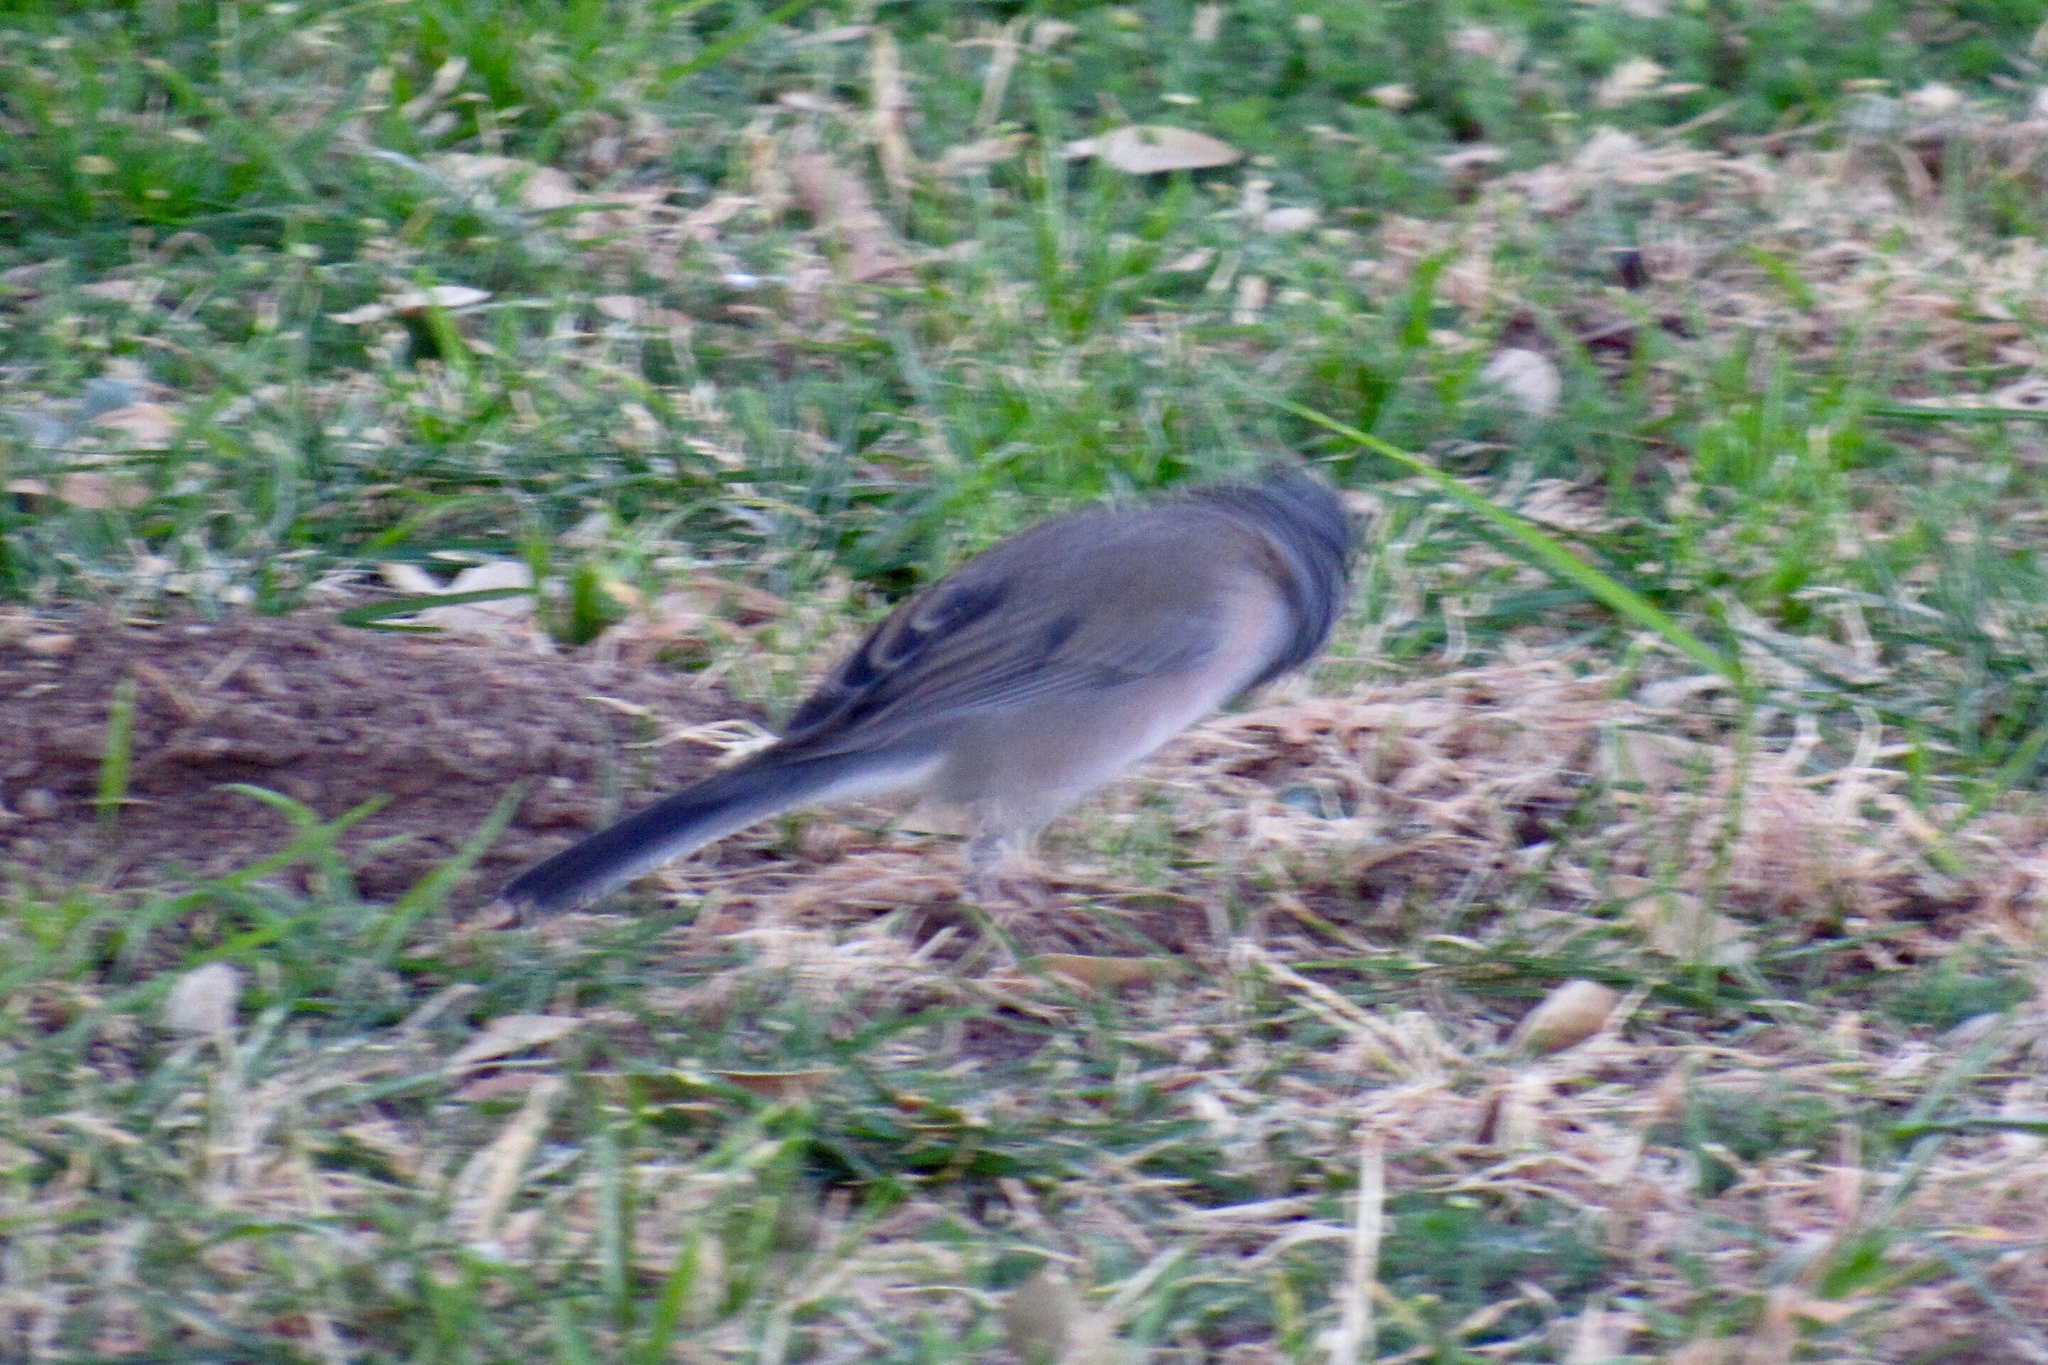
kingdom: Animalia
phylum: Chordata
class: Aves
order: Passeriformes
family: Passerellidae
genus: Junco
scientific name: Junco hyemalis
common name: Dark-eyed junco
